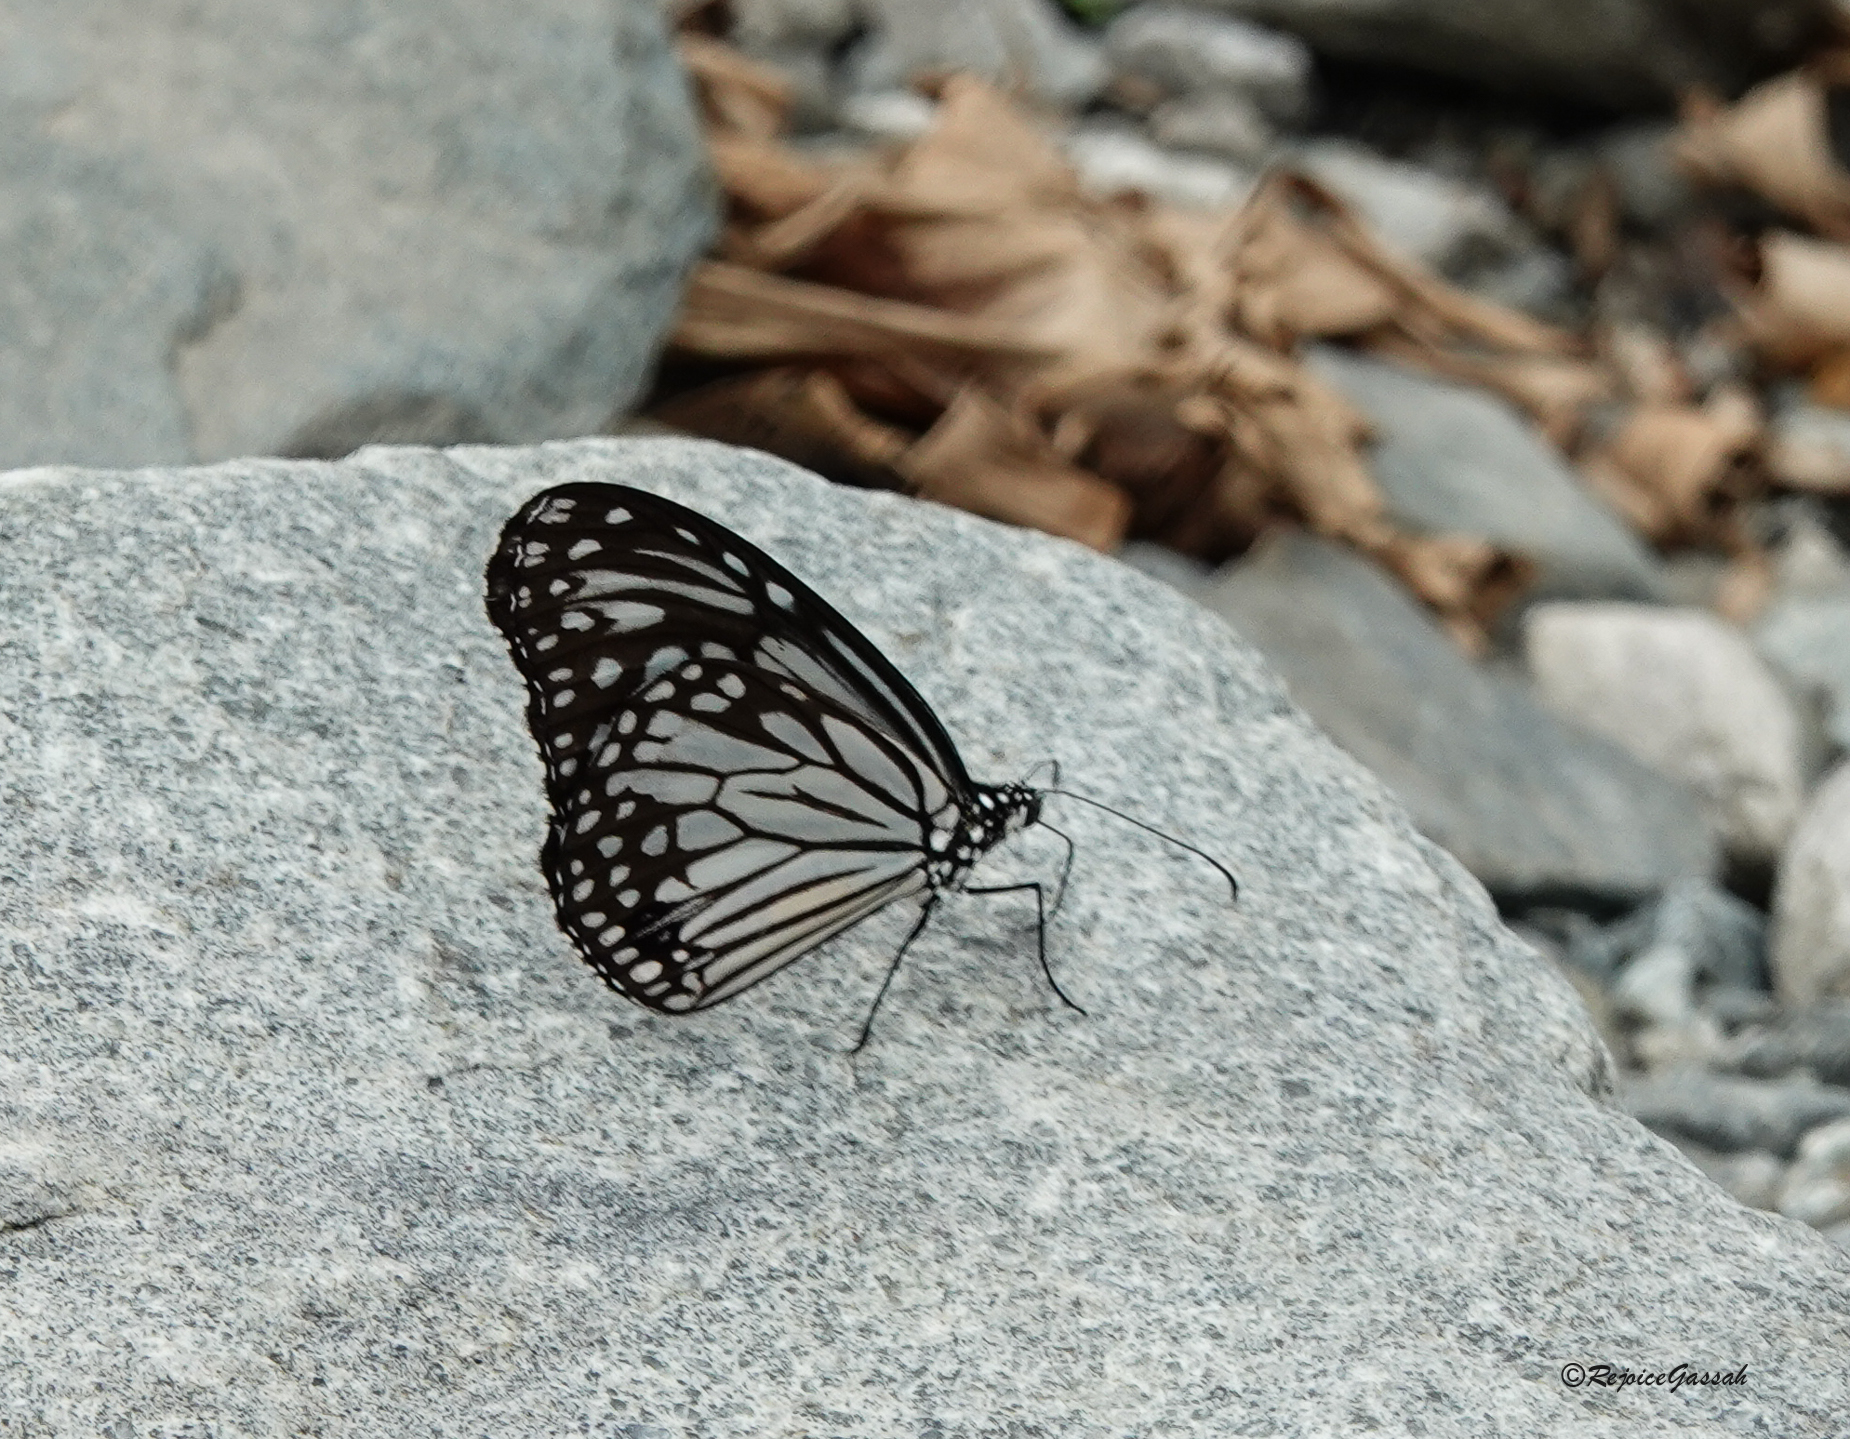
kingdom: Animalia
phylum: Arthropoda
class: Insecta
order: Lepidoptera
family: Nymphalidae
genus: Parantica
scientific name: Parantica aglea
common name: Glassy tiger
